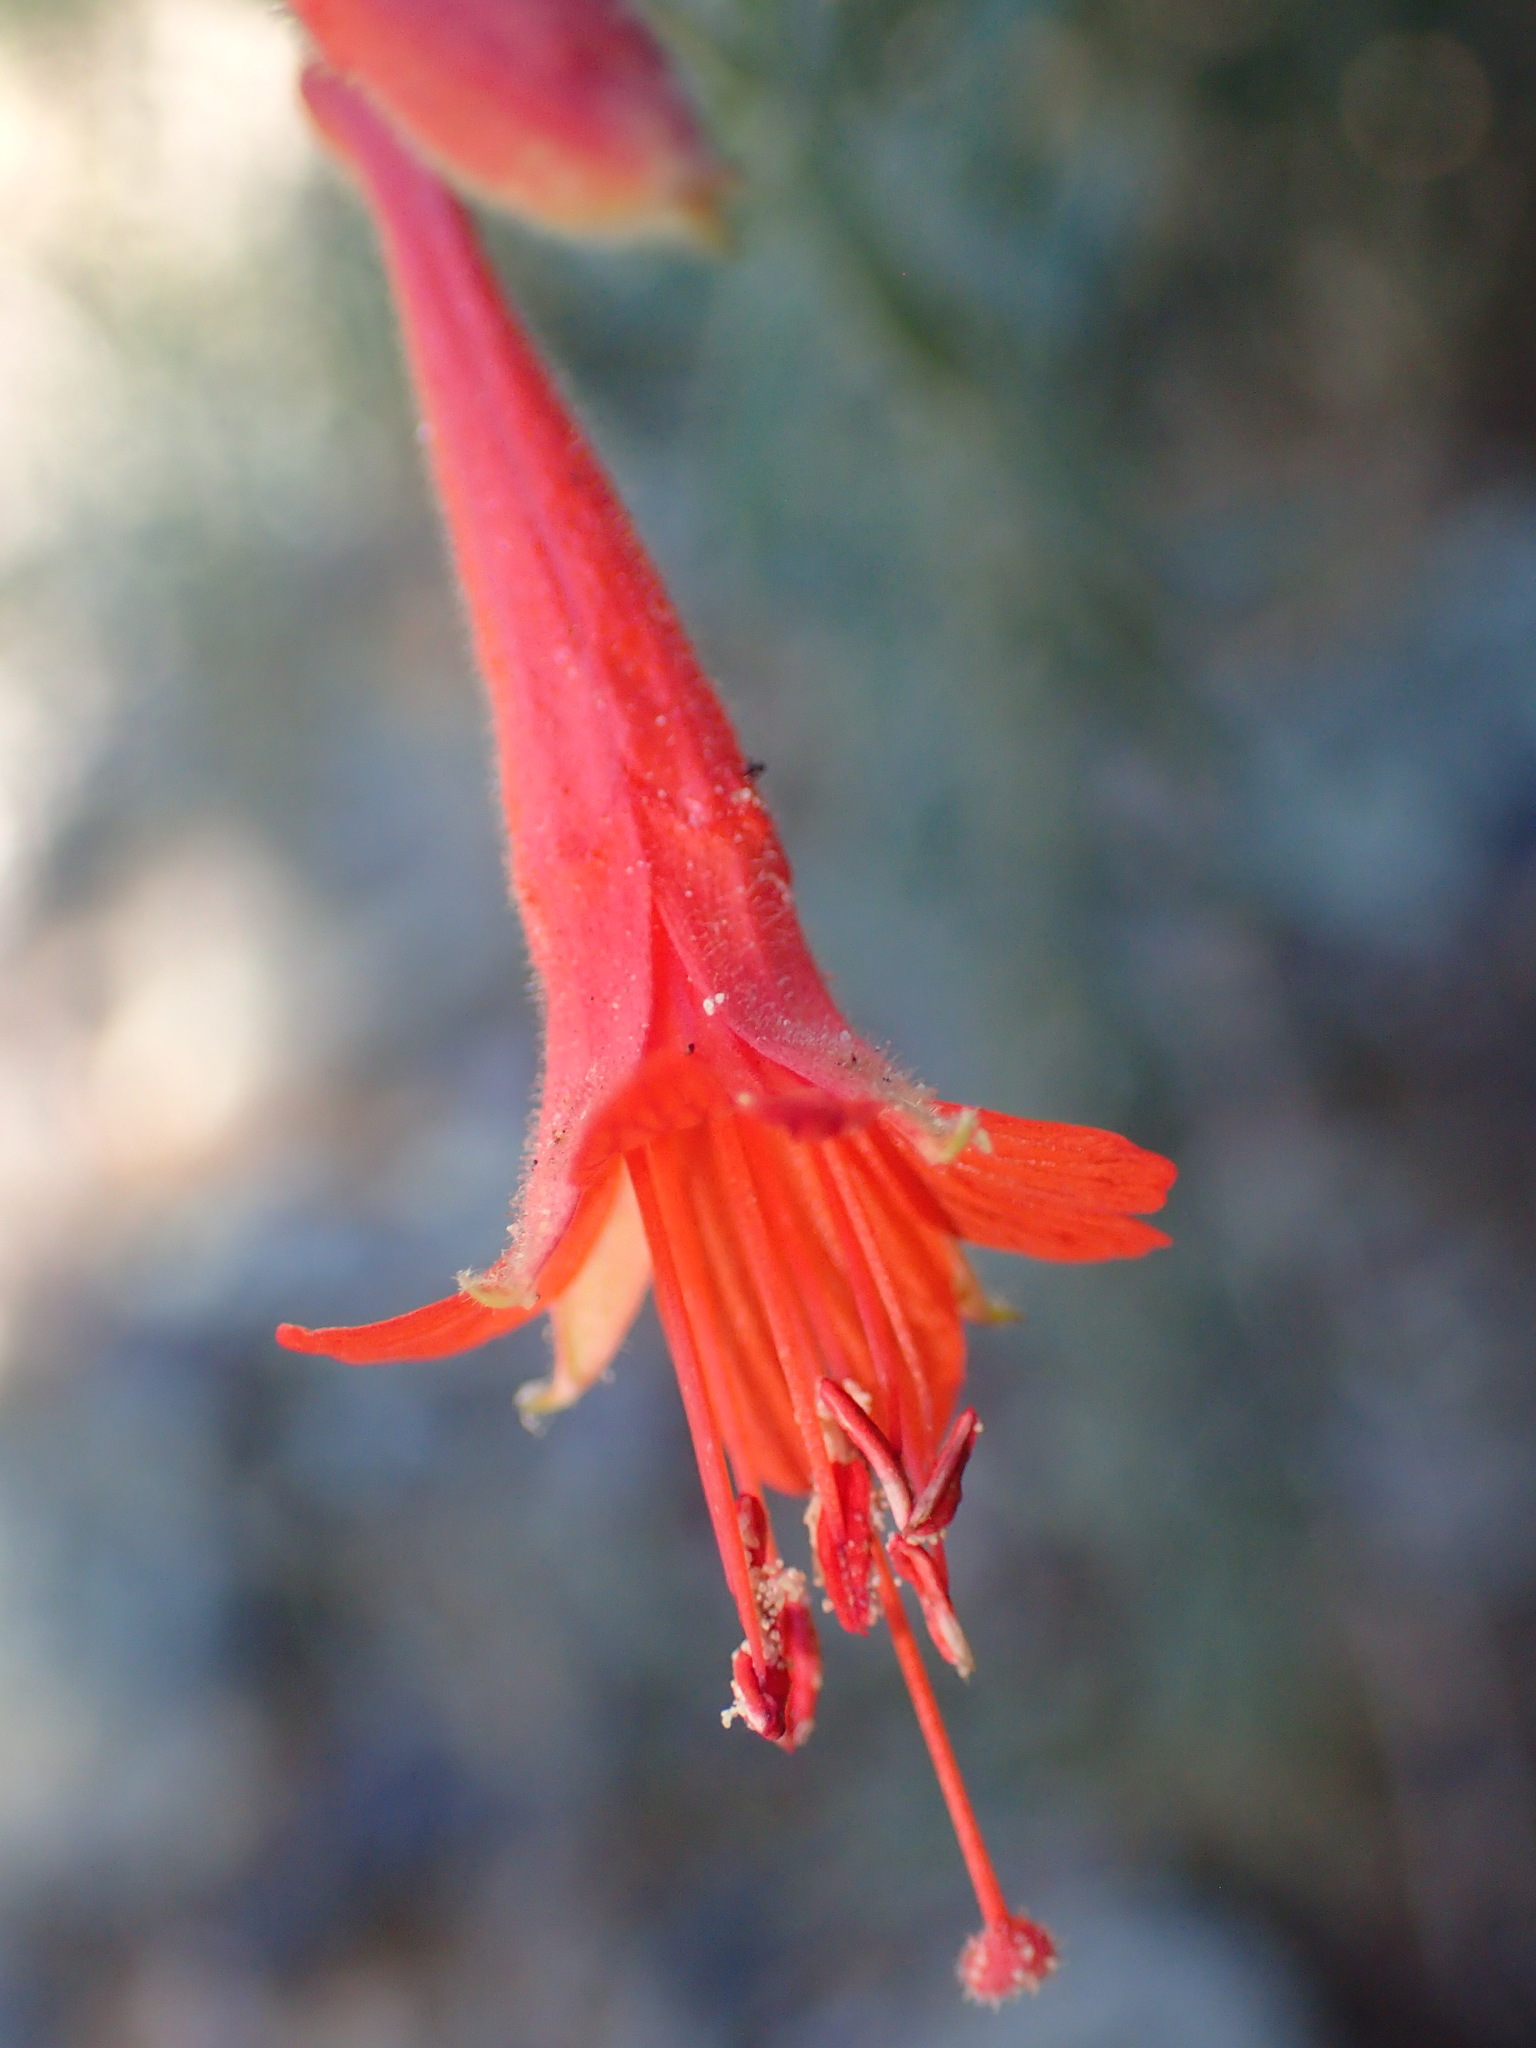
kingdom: Plantae
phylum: Tracheophyta
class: Magnoliopsida
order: Myrtales
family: Onagraceae
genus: Epilobium
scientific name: Epilobium canum
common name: California-fuchsia
